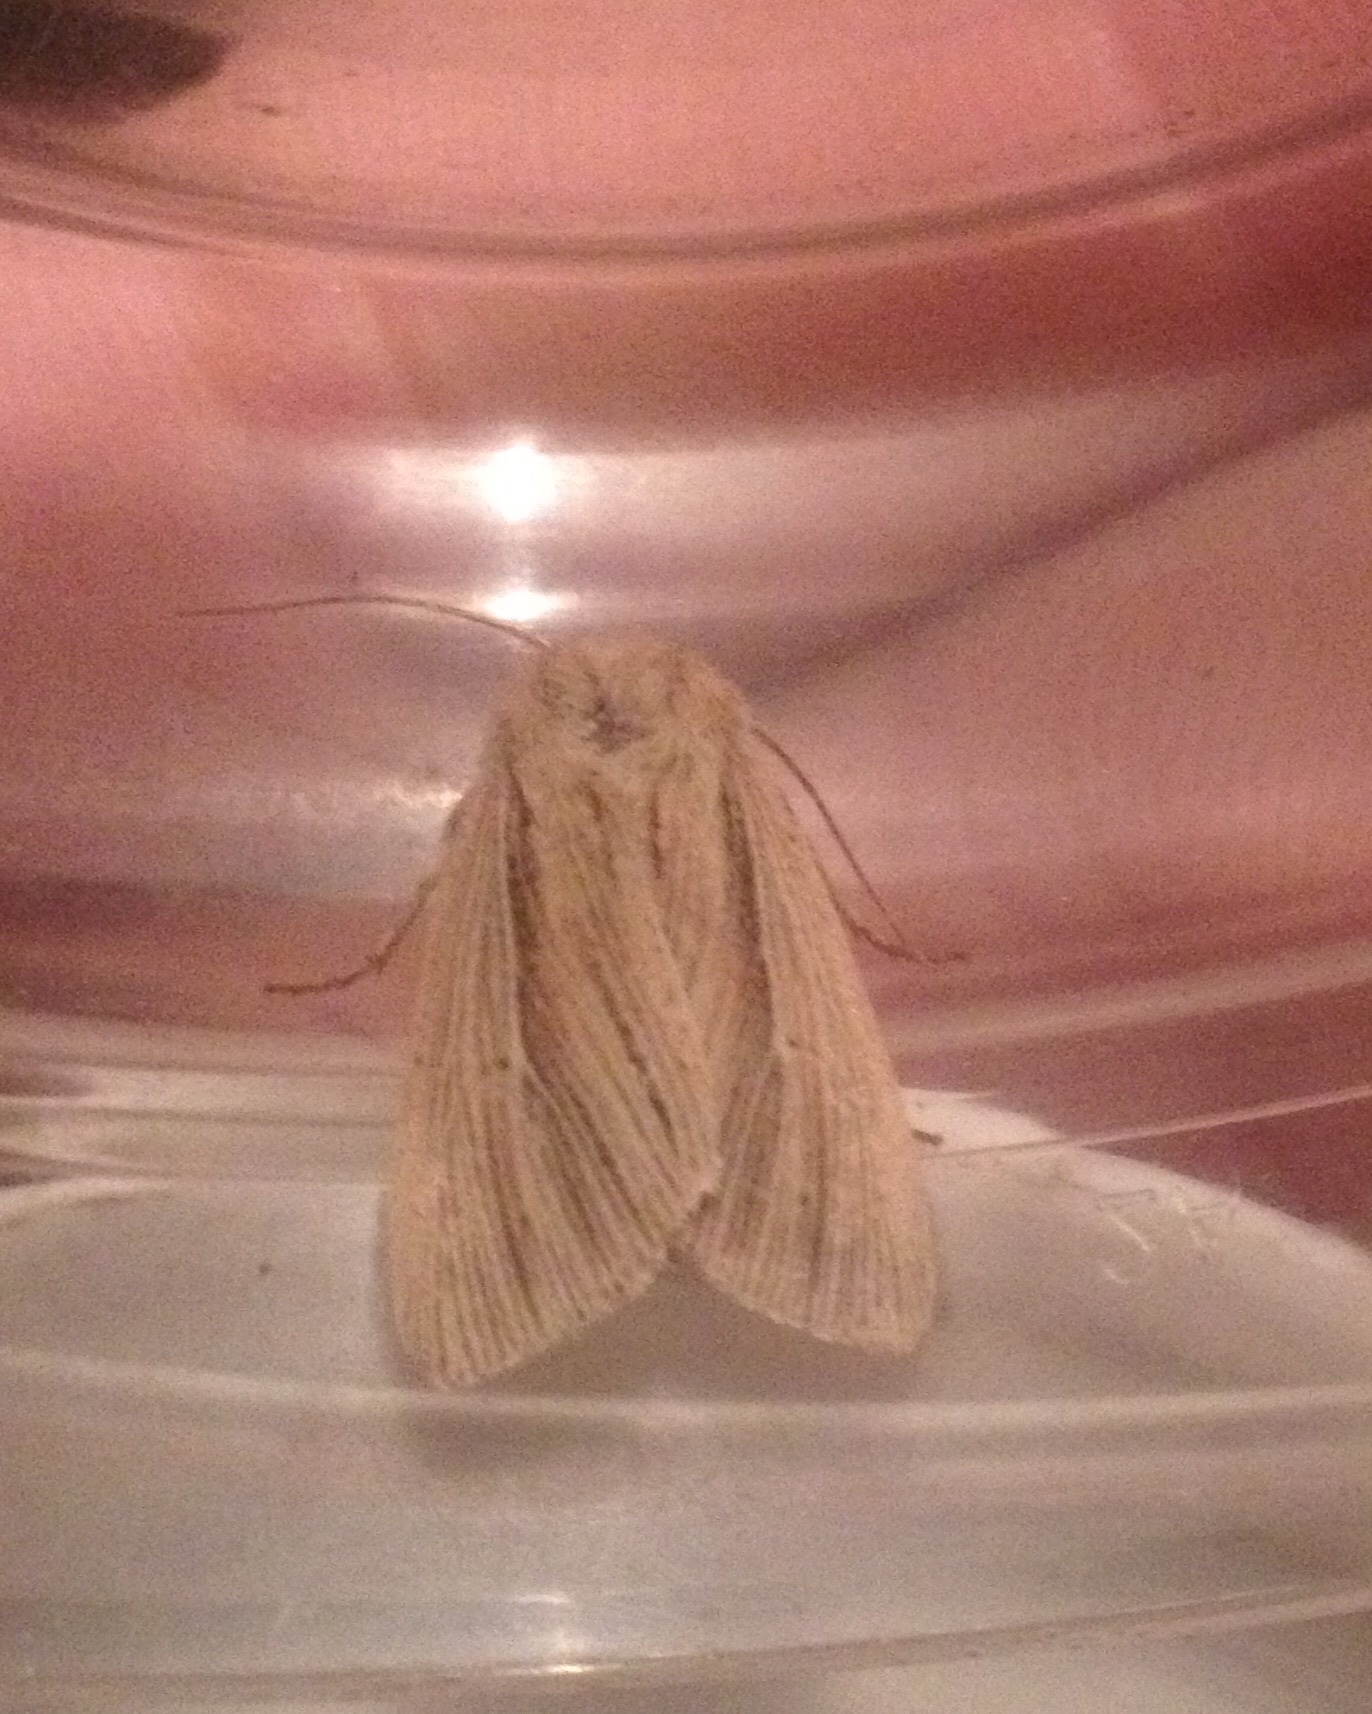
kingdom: Animalia
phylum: Arthropoda
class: Insecta
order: Lepidoptera
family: Noctuidae
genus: Mythimna
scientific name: Mythimna impura
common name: Smoky wainscot
